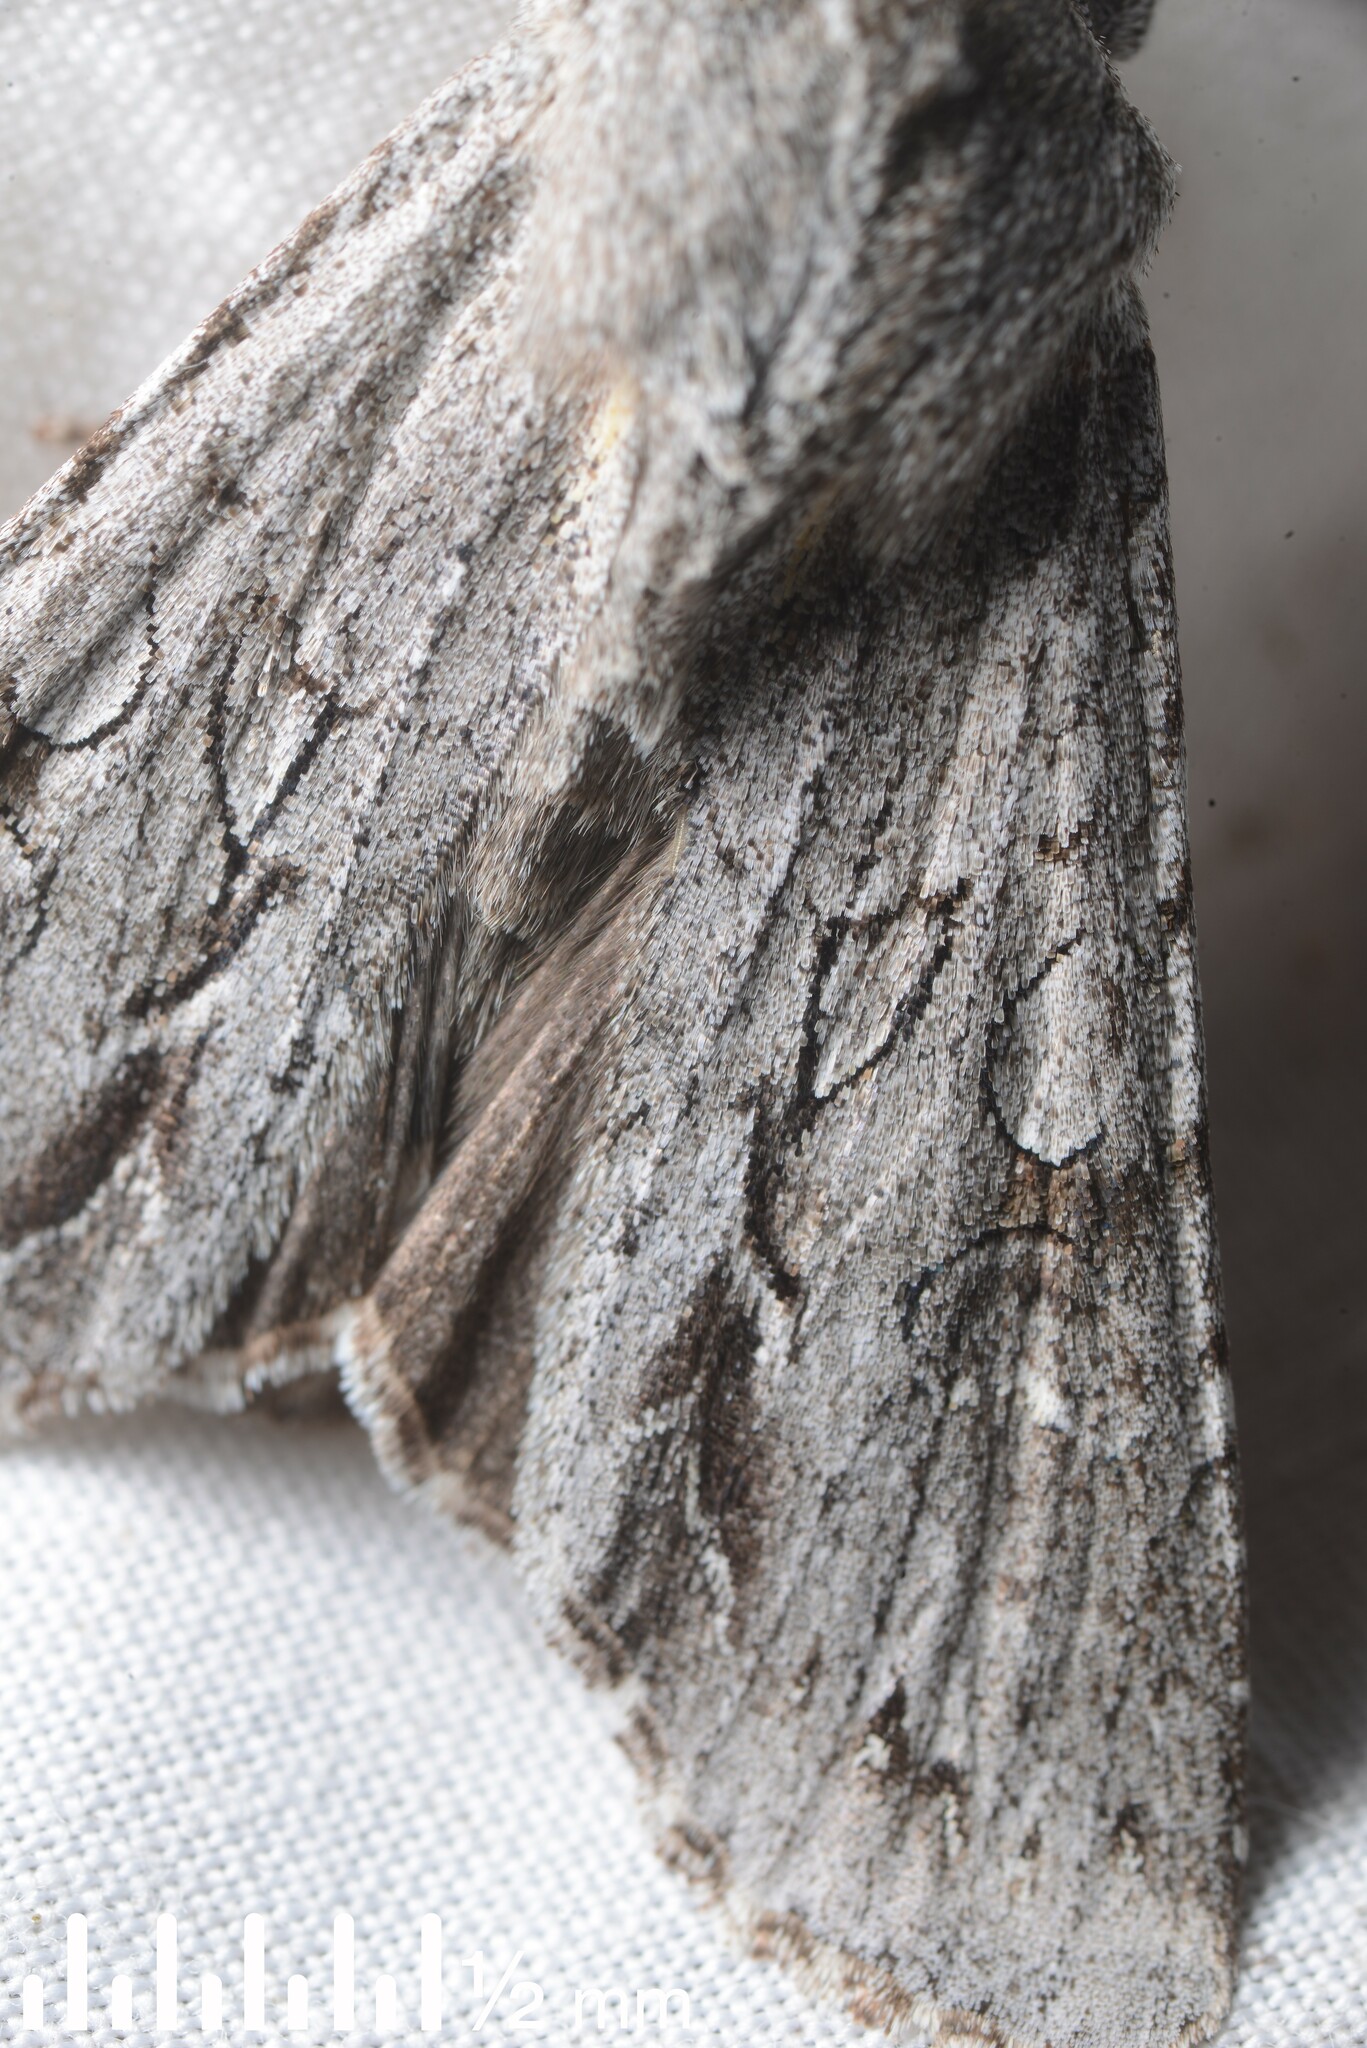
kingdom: Animalia
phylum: Arthropoda
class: Insecta
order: Lepidoptera
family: Noctuidae
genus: Ichneutica
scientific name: Ichneutica
